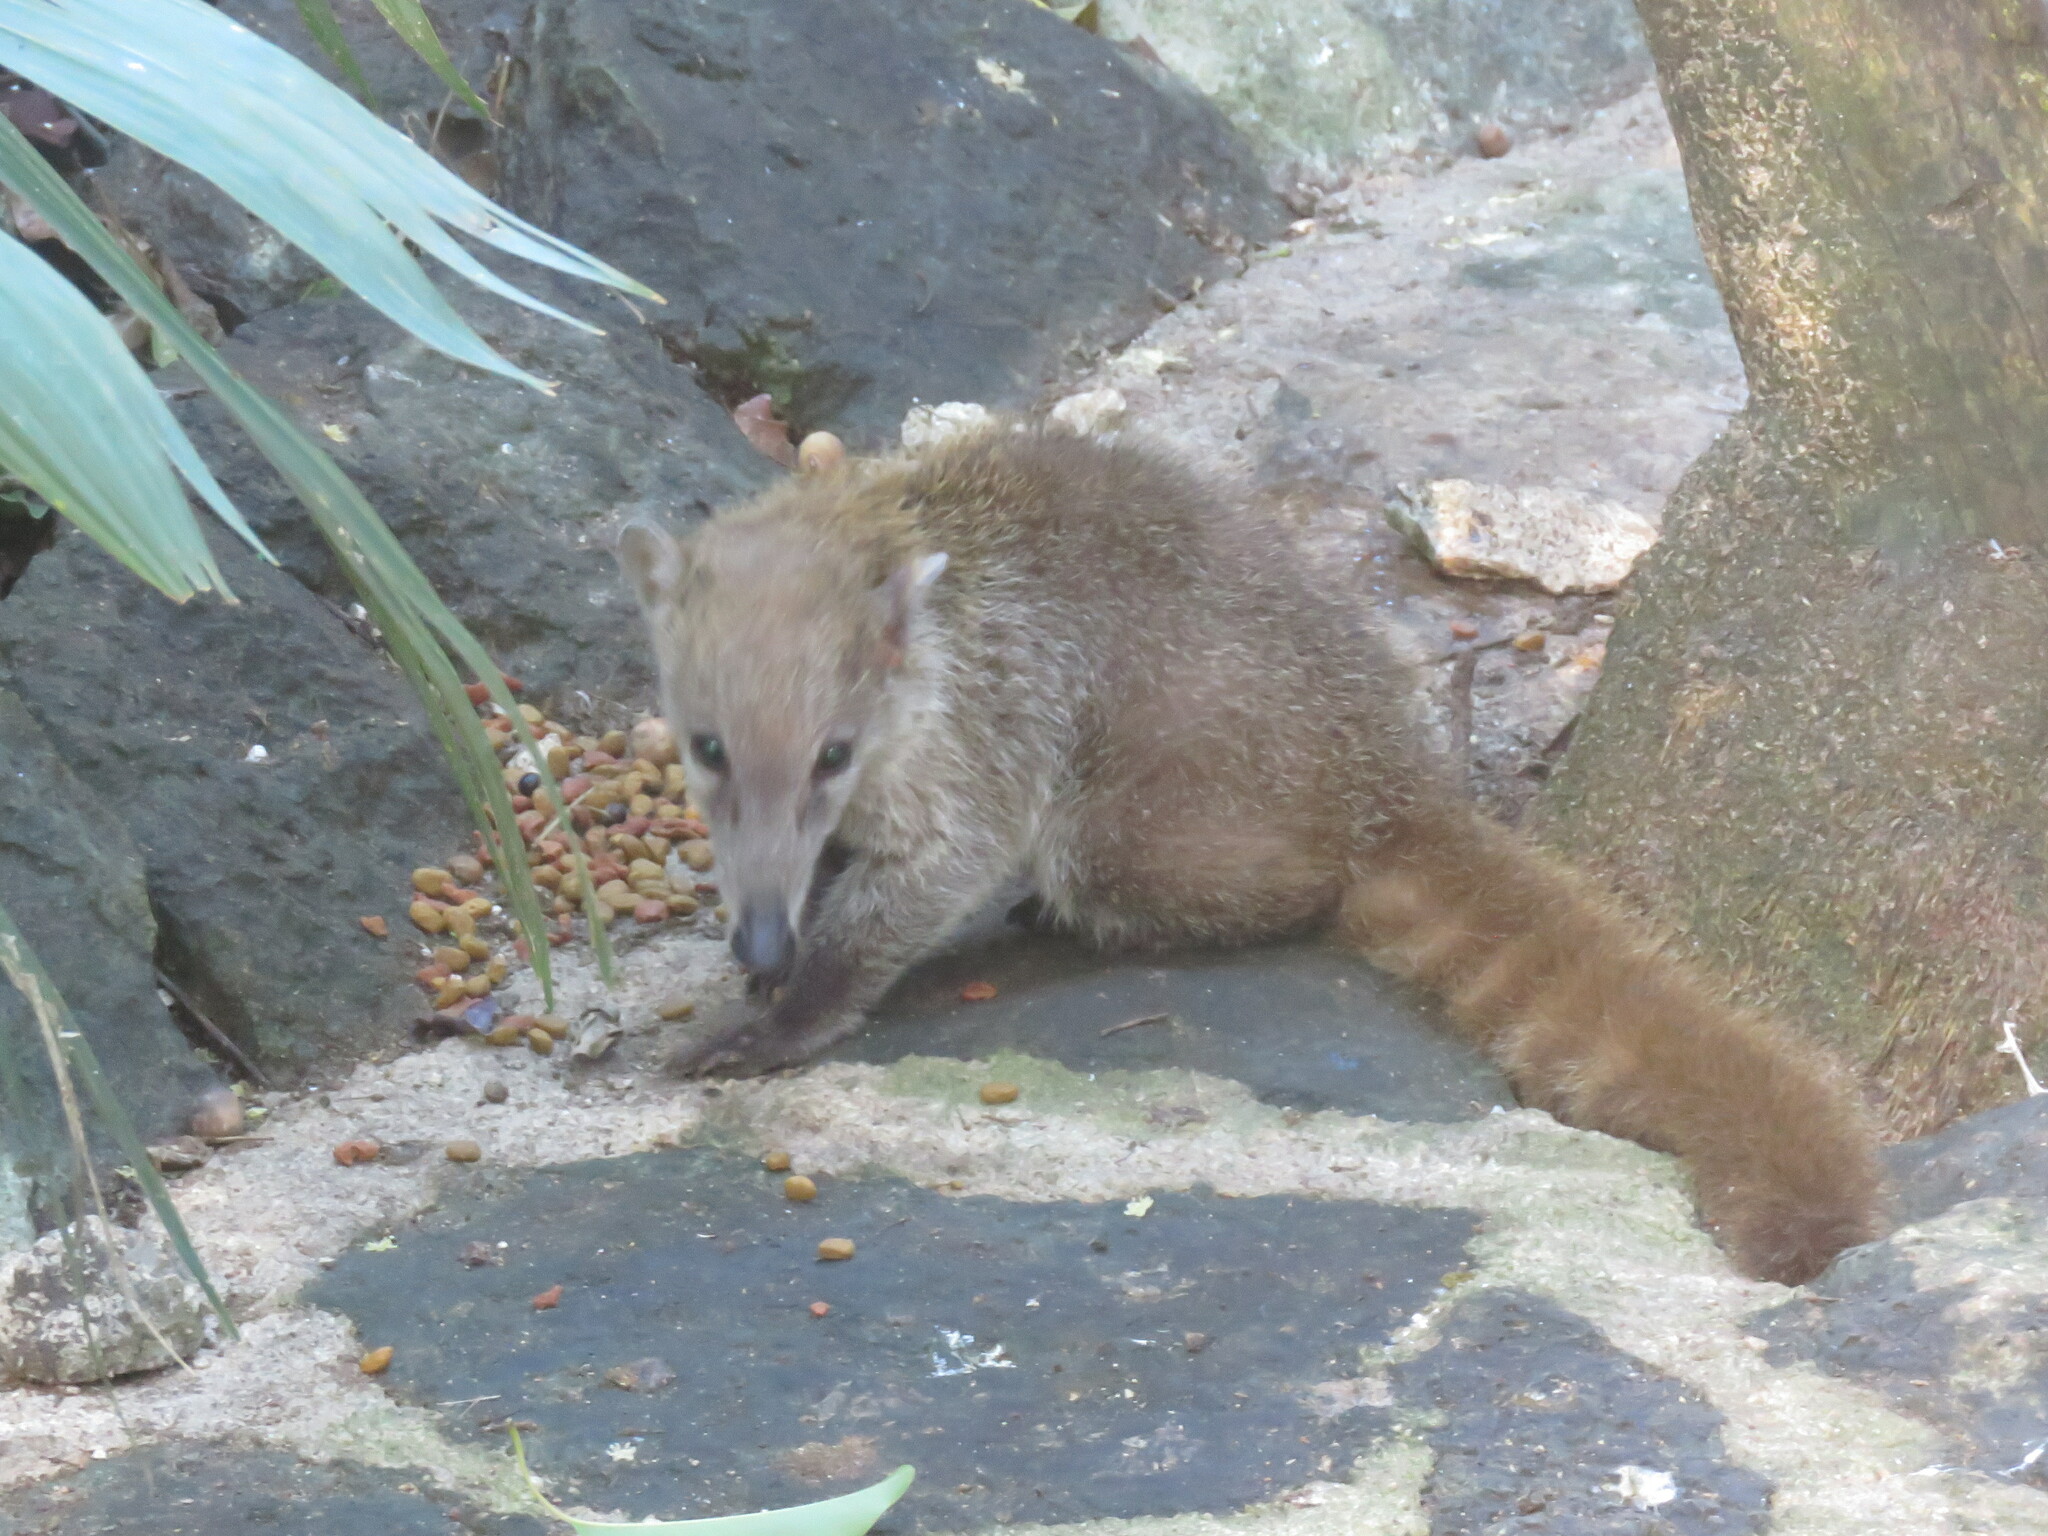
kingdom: Animalia
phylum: Chordata
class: Mammalia
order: Carnivora
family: Procyonidae
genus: Nasua
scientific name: Nasua narica
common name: White-nosed coati
